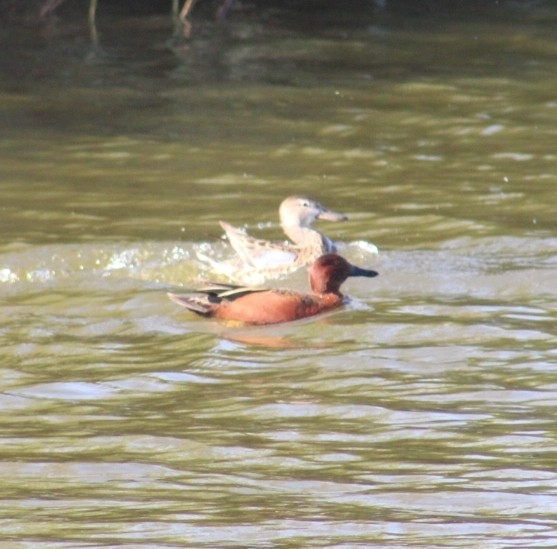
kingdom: Animalia
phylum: Chordata
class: Aves
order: Anseriformes
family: Anatidae
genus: Spatula
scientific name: Spatula cyanoptera
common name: Cinnamon teal
